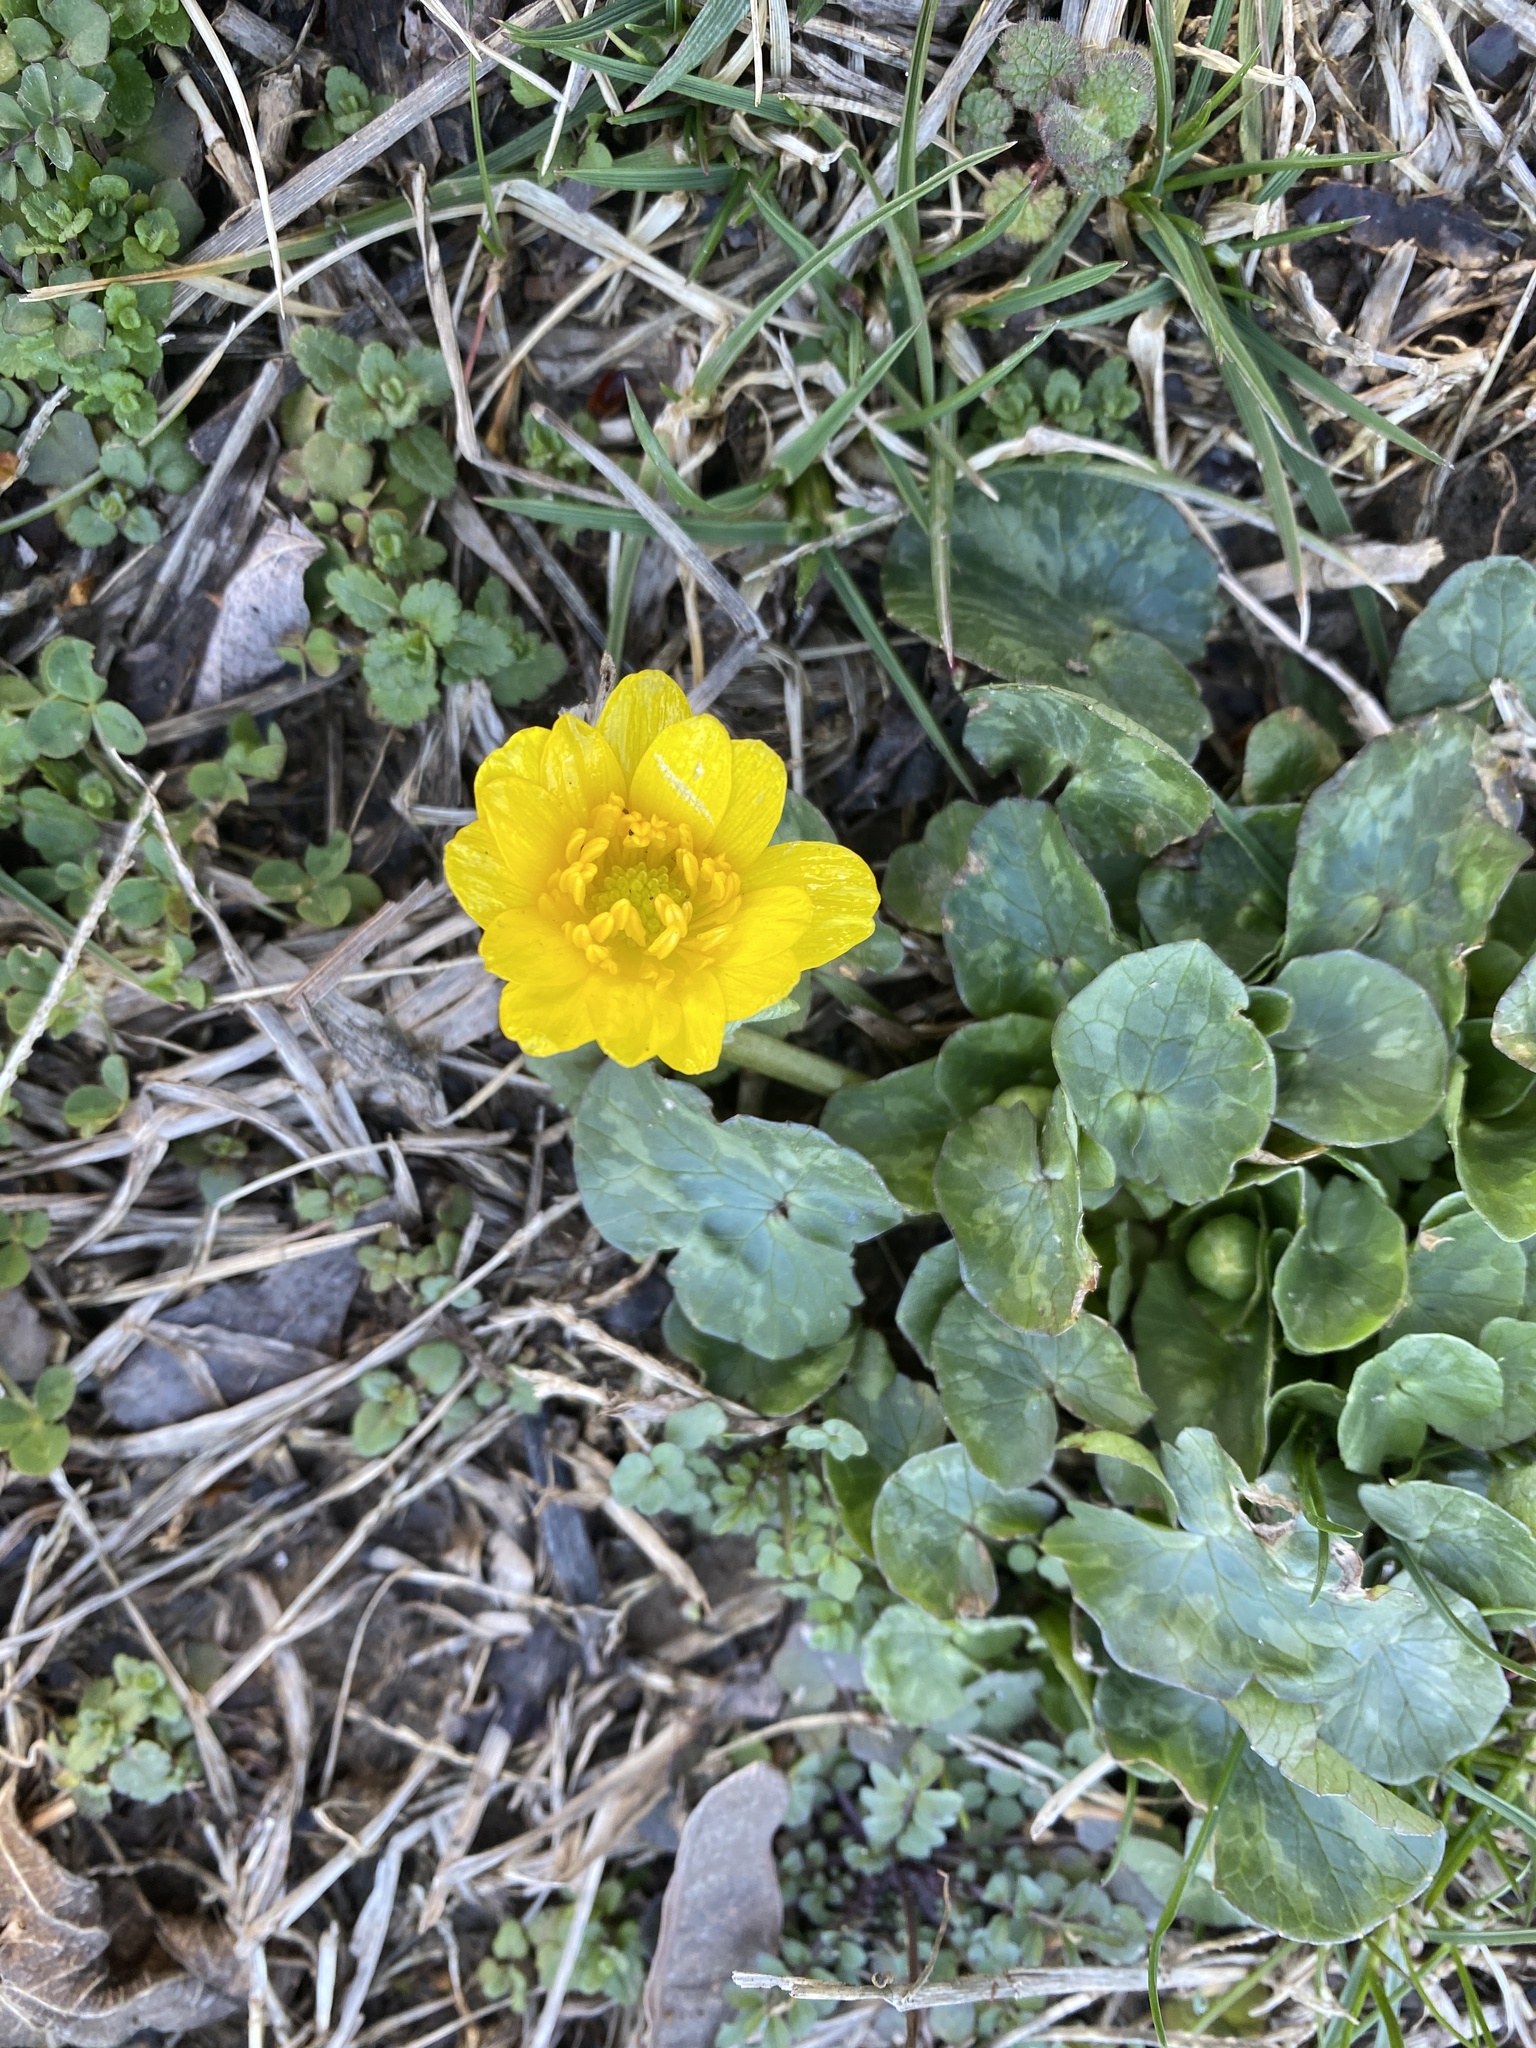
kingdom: Plantae
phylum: Tracheophyta
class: Magnoliopsida
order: Ranunculales
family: Ranunculaceae
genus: Ficaria
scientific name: Ficaria verna
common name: Lesser celandine
